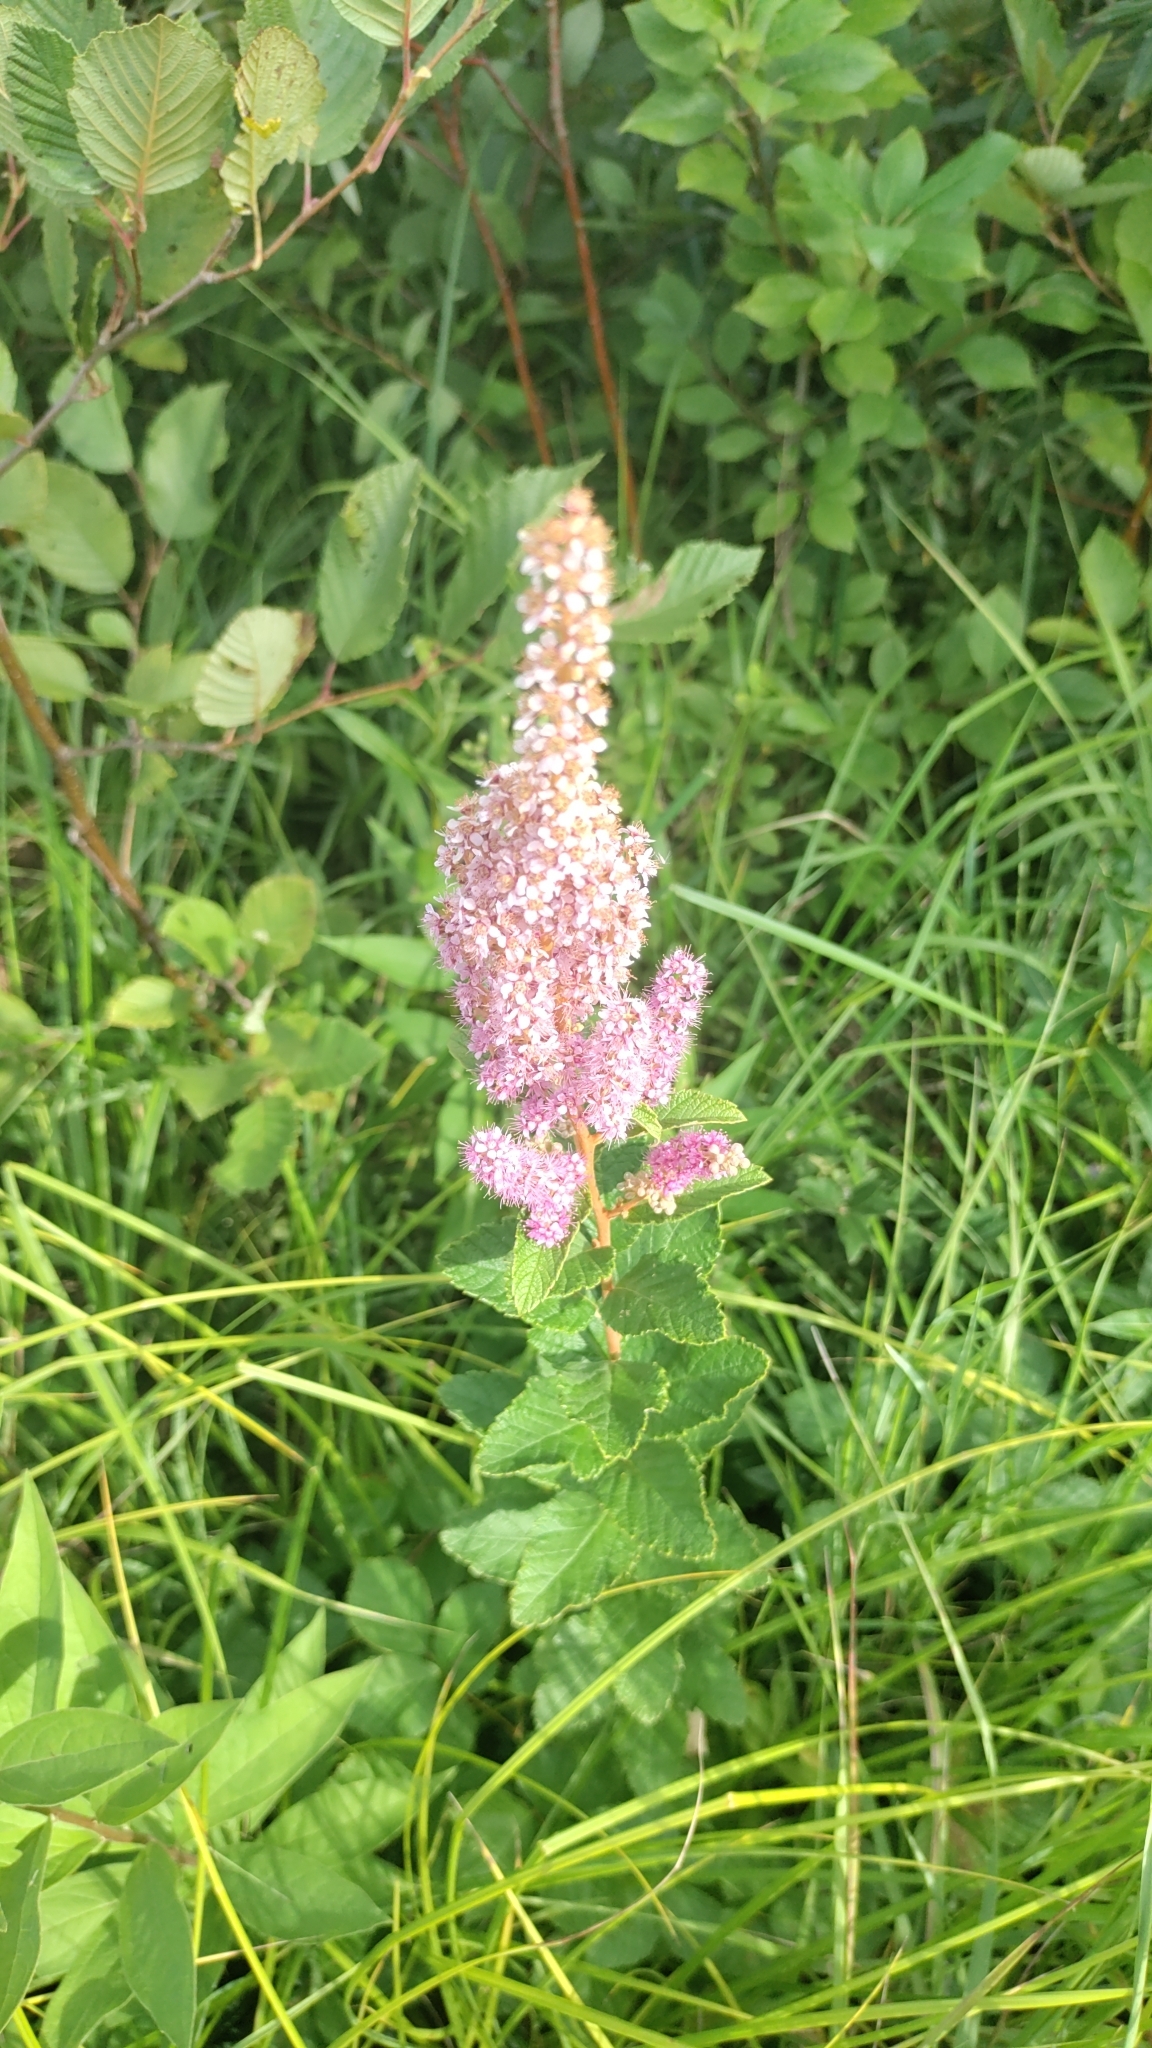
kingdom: Plantae
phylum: Tracheophyta
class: Magnoliopsida
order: Rosales
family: Rosaceae
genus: Spiraea
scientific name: Spiraea tomentosa
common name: Hardhack
